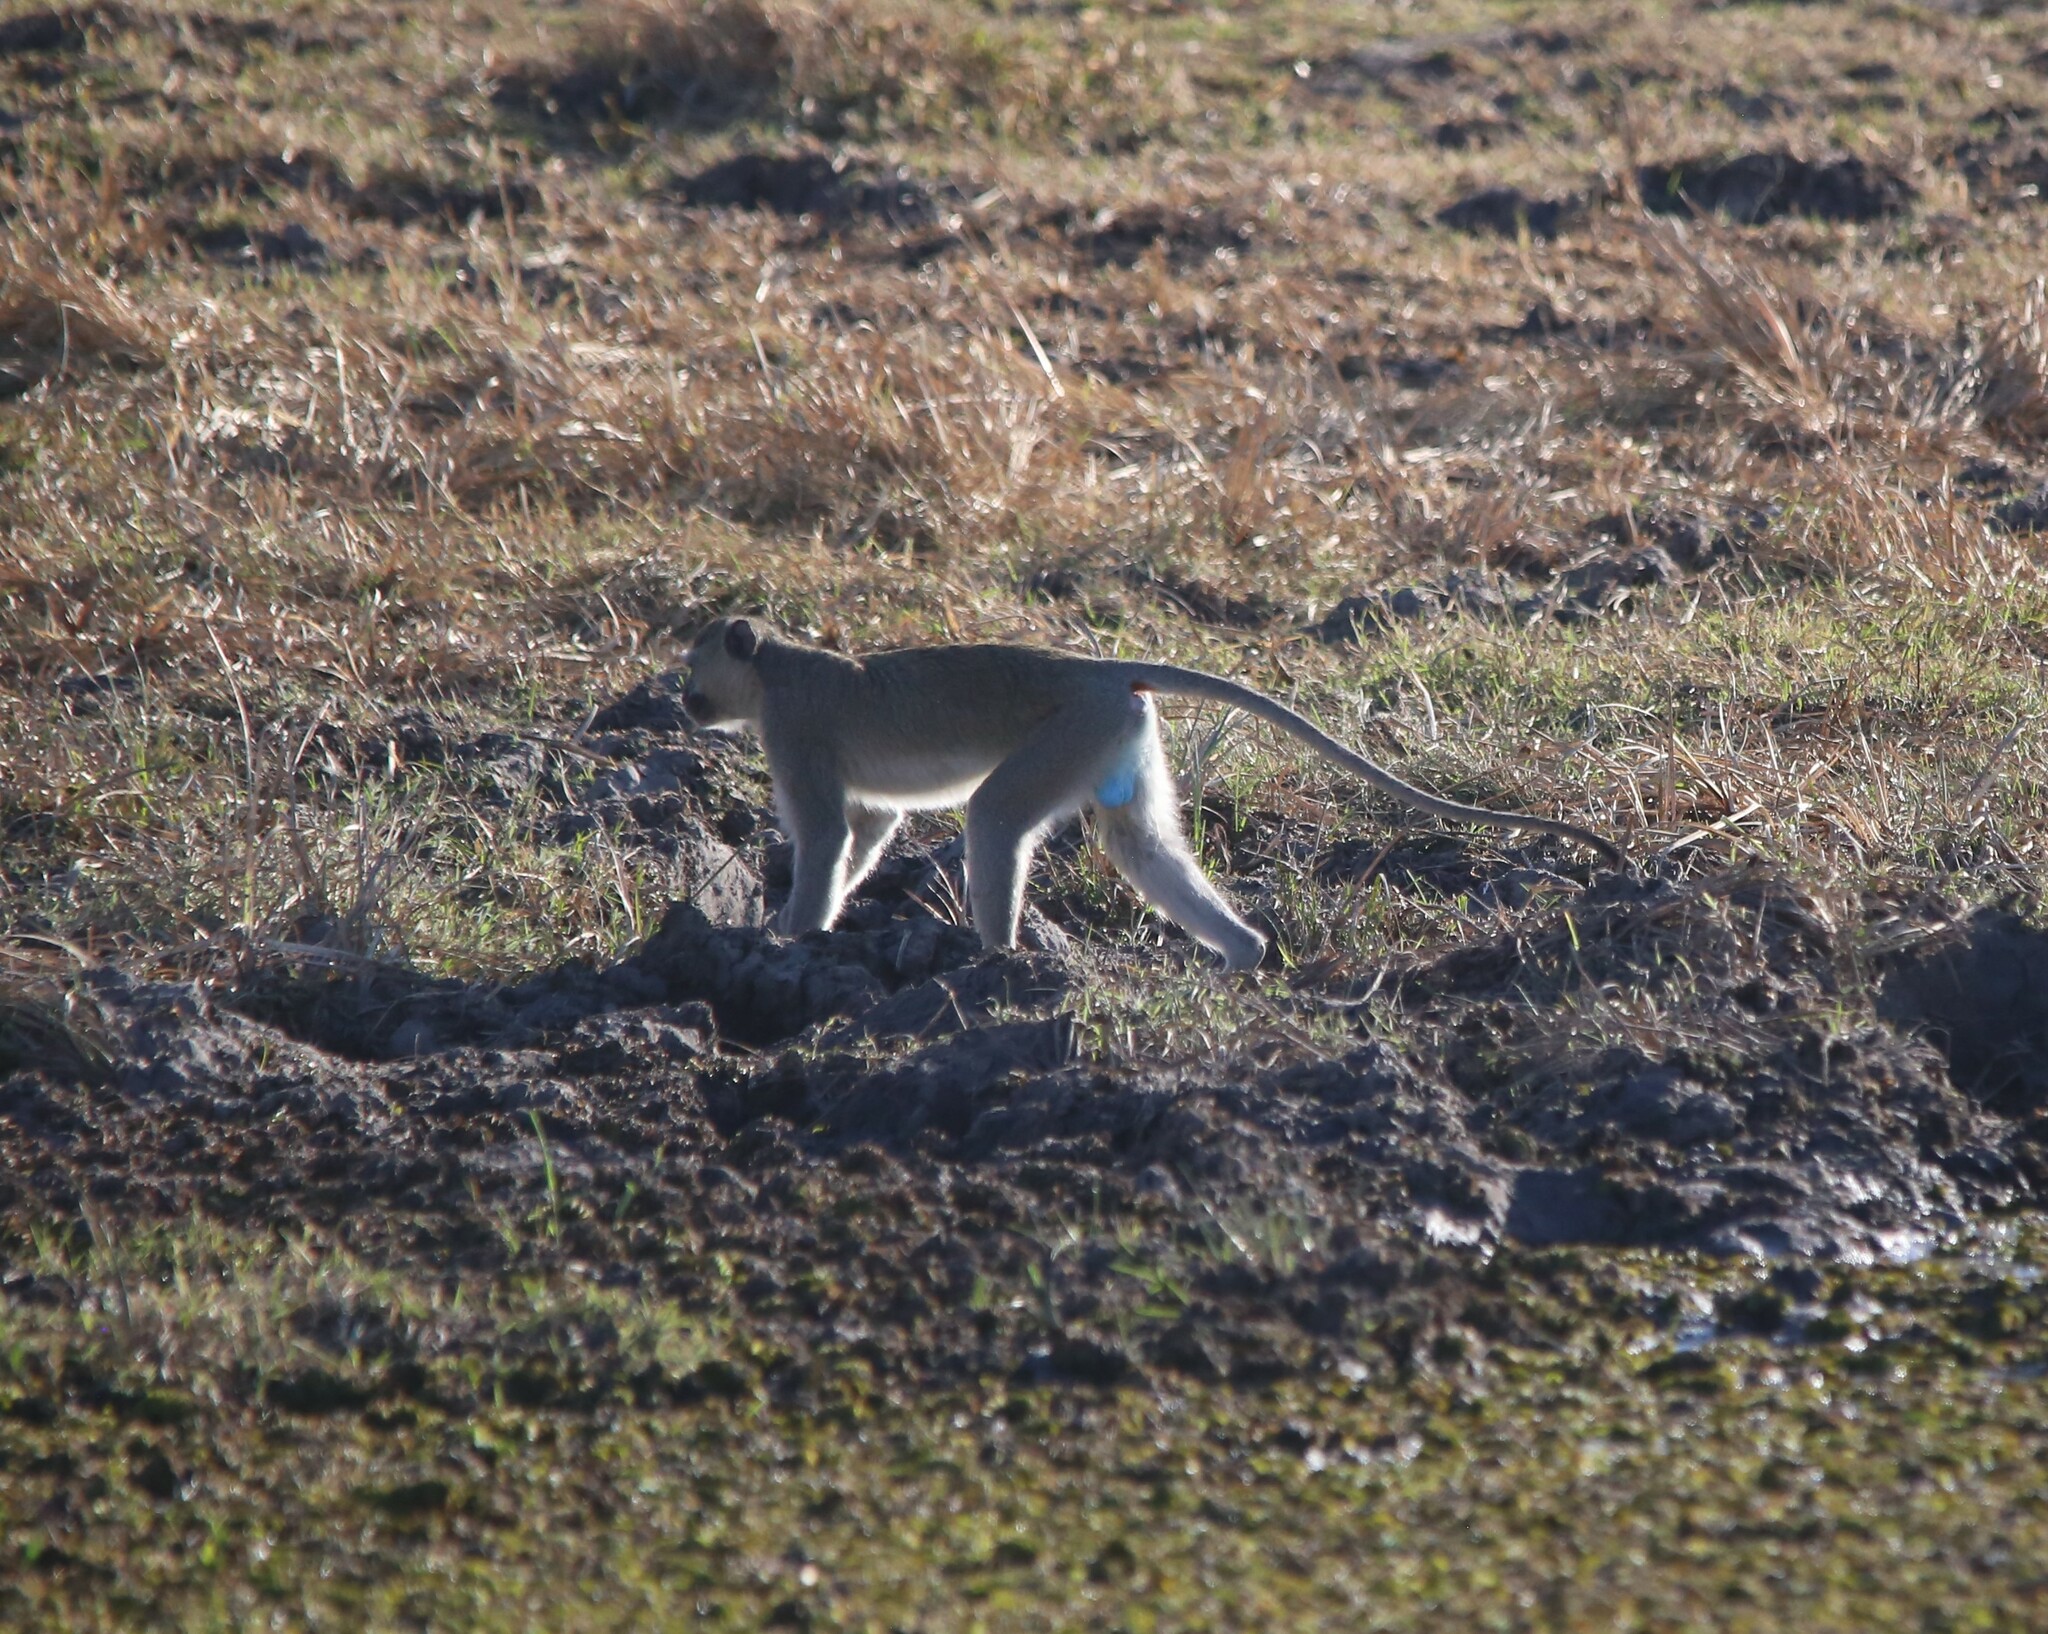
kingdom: Animalia
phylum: Chordata
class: Mammalia
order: Primates
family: Cercopithecidae
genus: Chlorocebus
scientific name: Chlorocebus pygerythrus
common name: Vervet monkey
